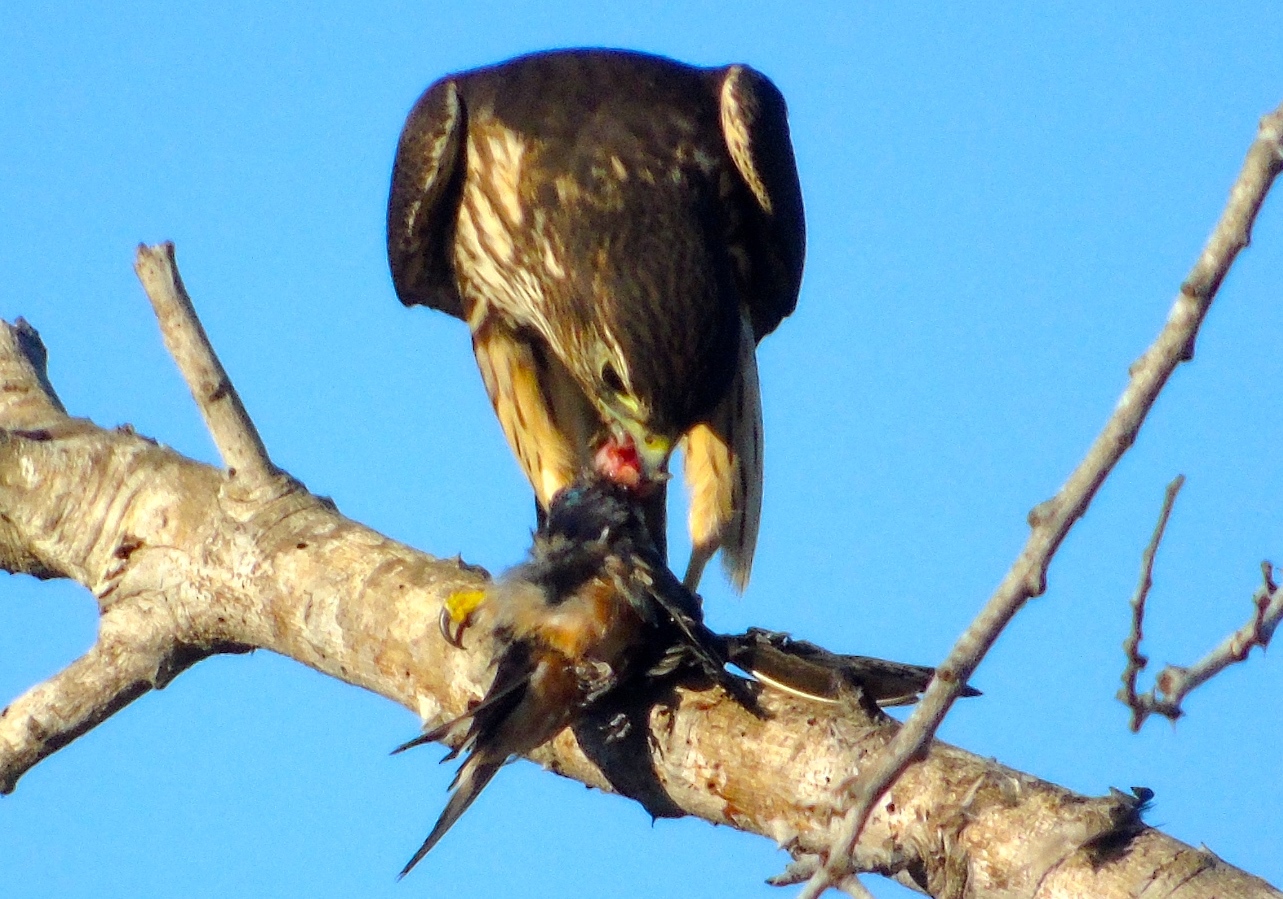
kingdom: Animalia
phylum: Chordata
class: Aves
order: Falconiformes
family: Falconidae
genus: Falco
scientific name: Falco columbarius
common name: Merlin
